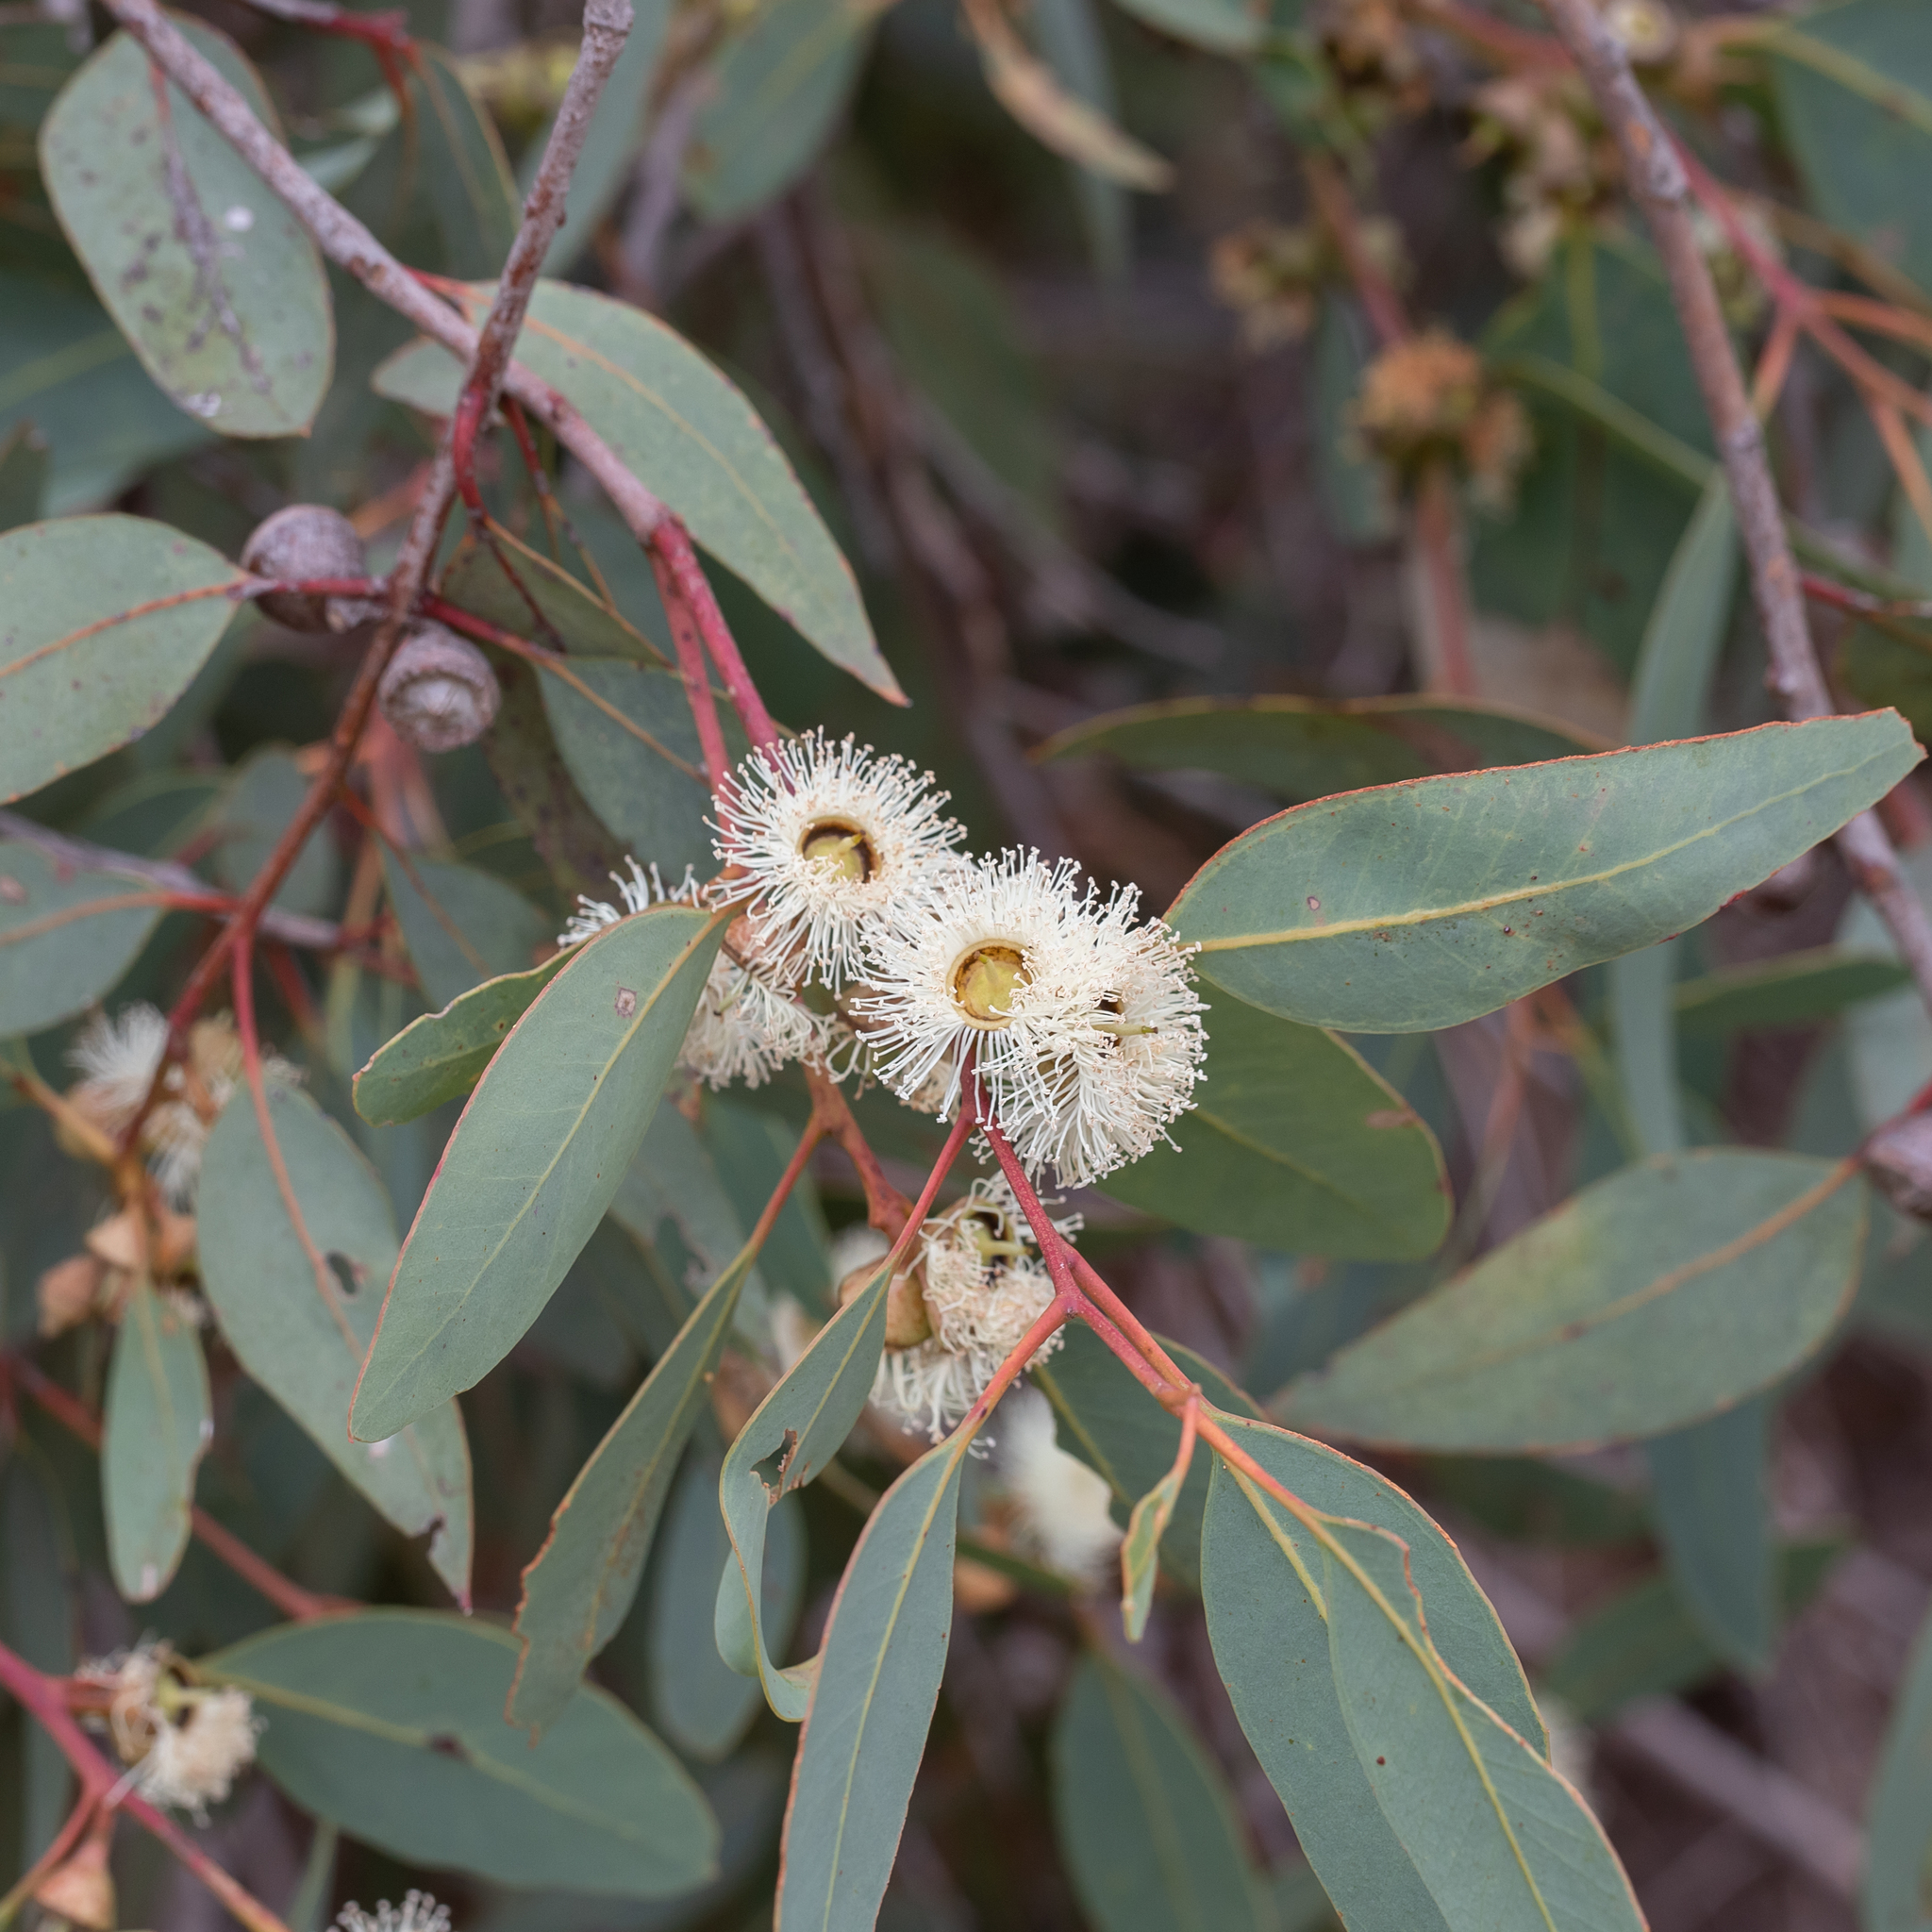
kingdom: Plantae
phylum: Tracheophyta
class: Magnoliopsida
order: Myrtales
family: Myrtaceae
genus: Eucalyptus
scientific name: Eucalyptus cosmophylla
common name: Bog-gum
